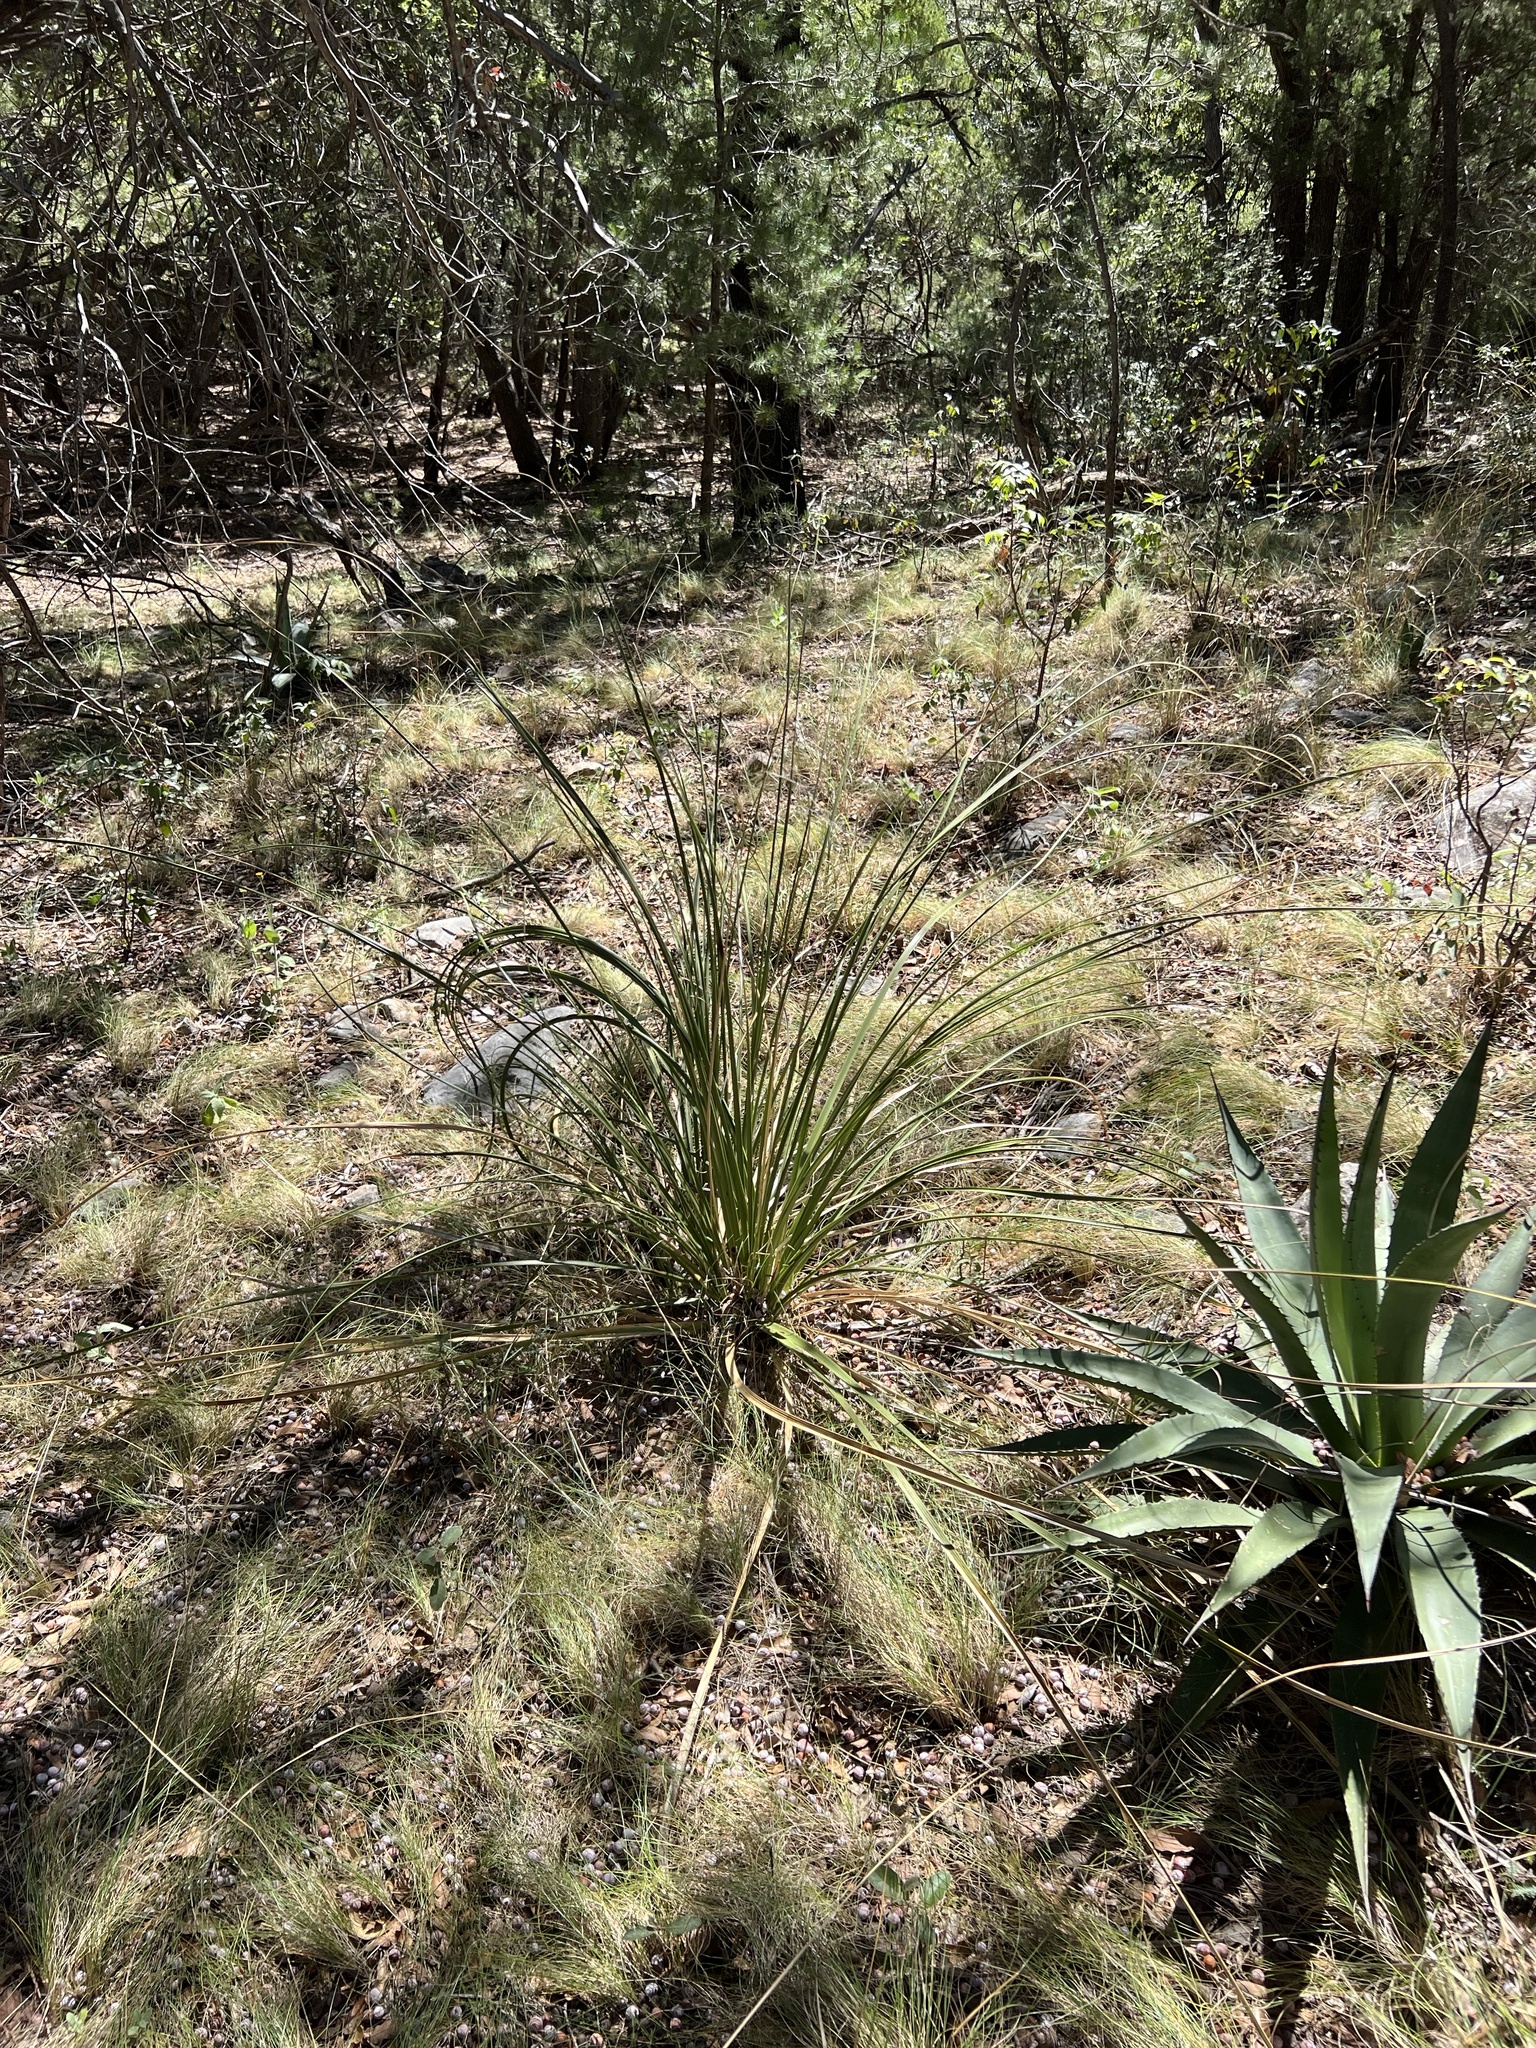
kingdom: Plantae
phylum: Tracheophyta
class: Liliopsida
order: Asparagales
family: Asparagaceae
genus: Nolina
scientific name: Nolina microcarpa
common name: Bear-grass
